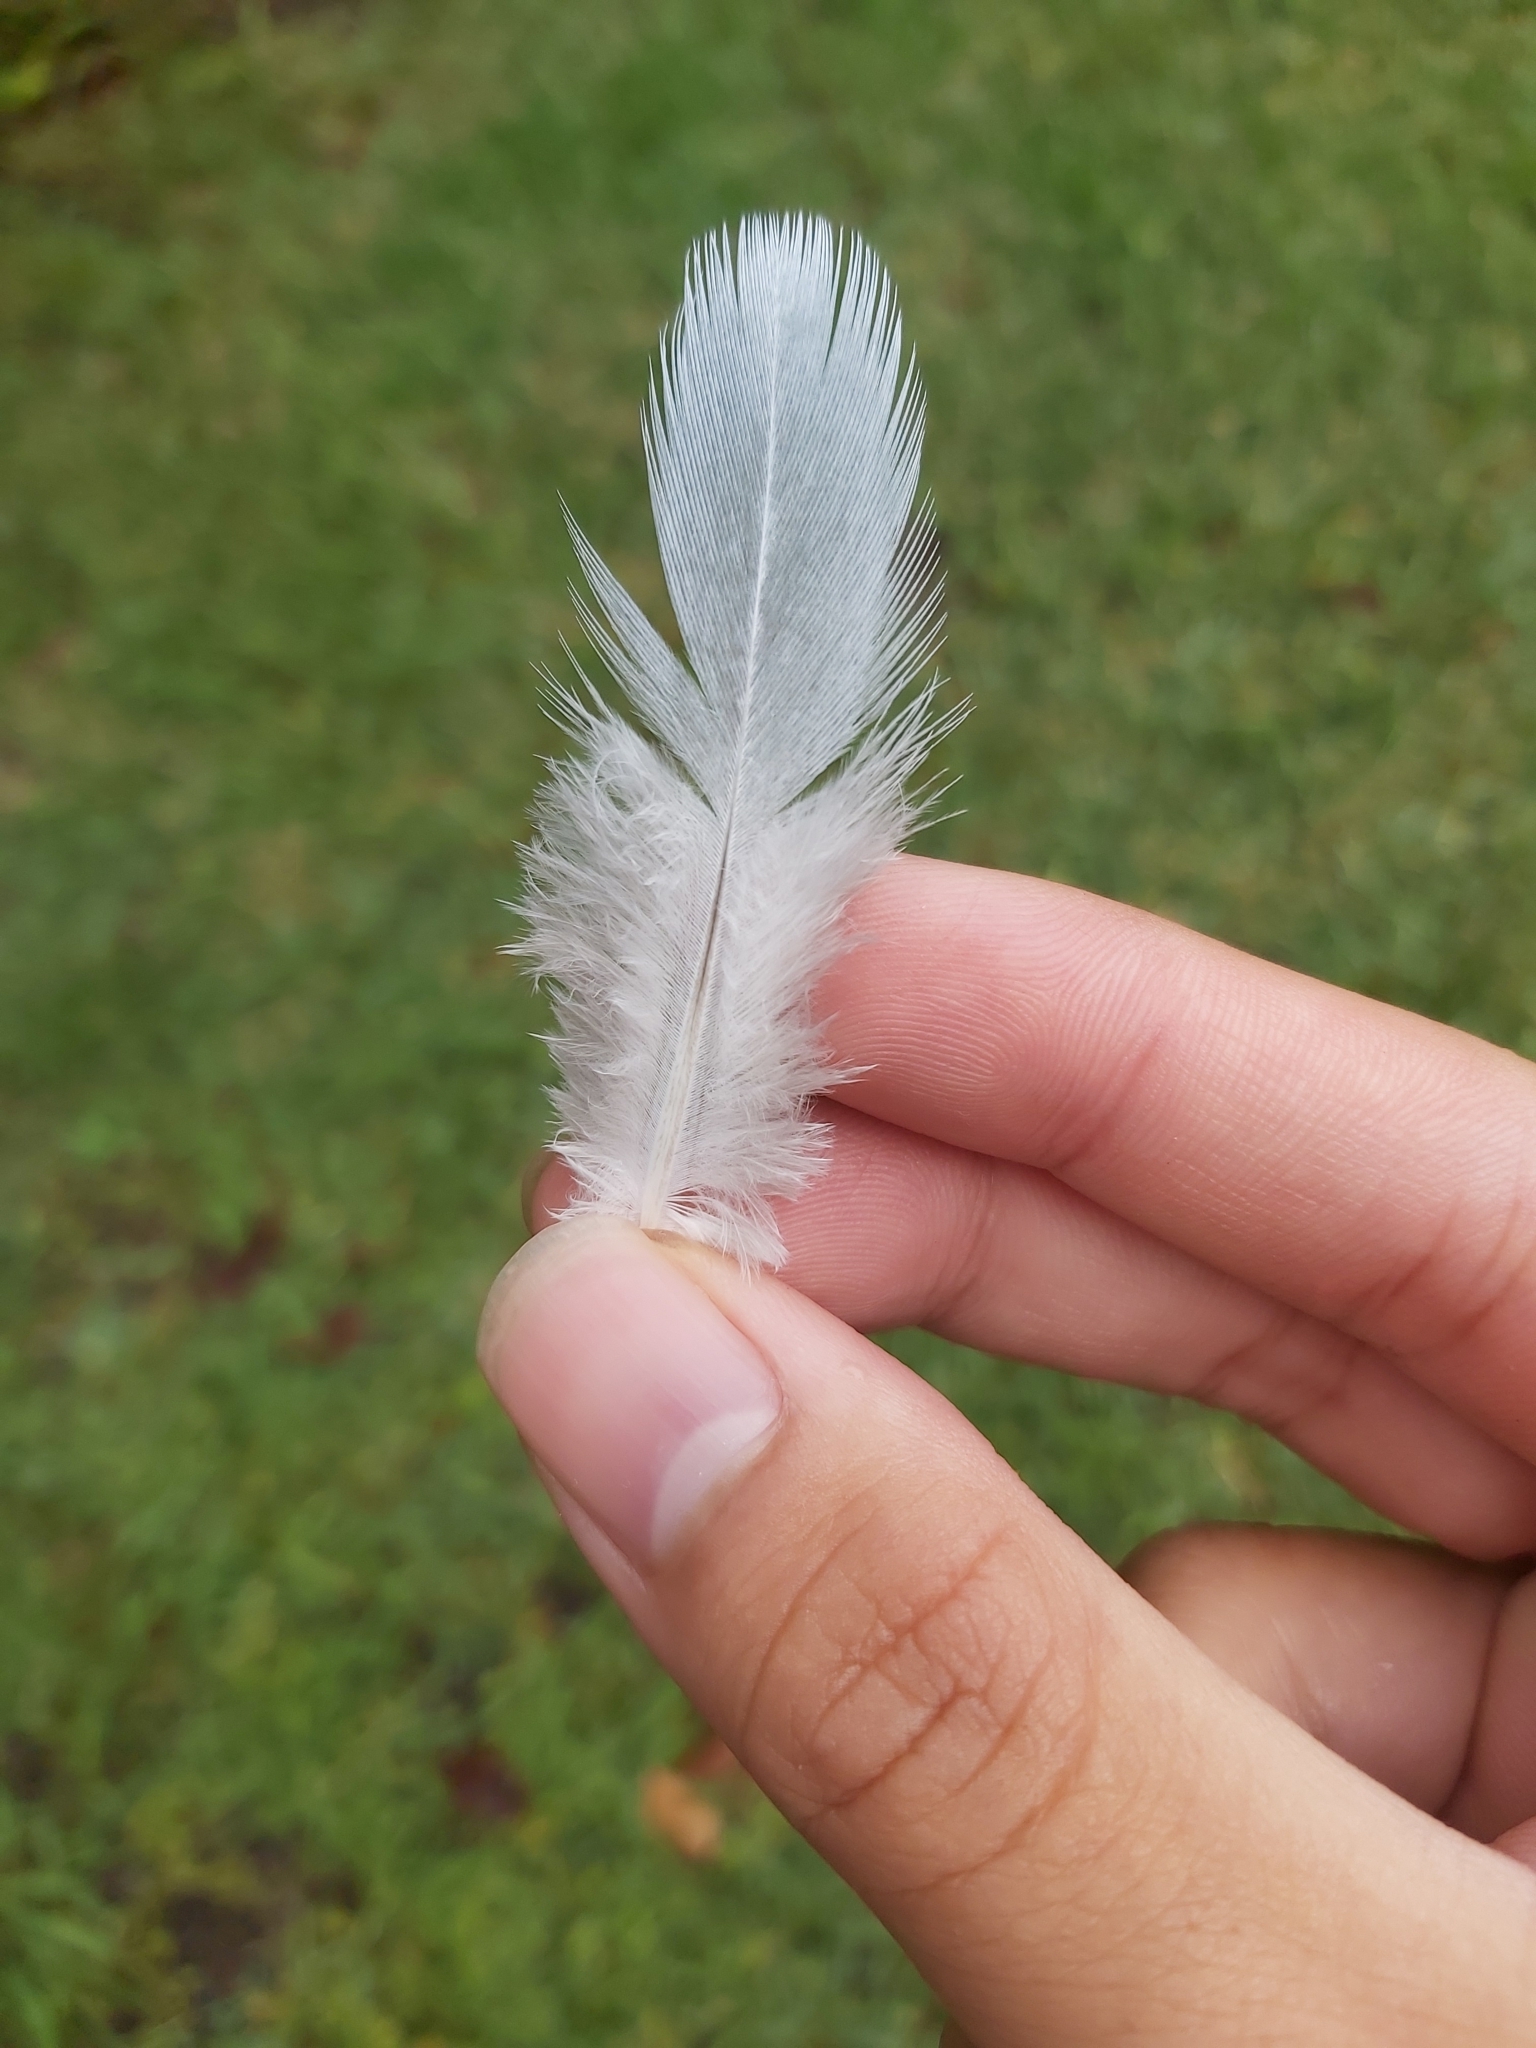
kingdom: Animalia
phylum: Chordata
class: Aves
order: Columbiformes
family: Columbidae
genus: Columba
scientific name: Columba livia
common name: Rock pigeon
